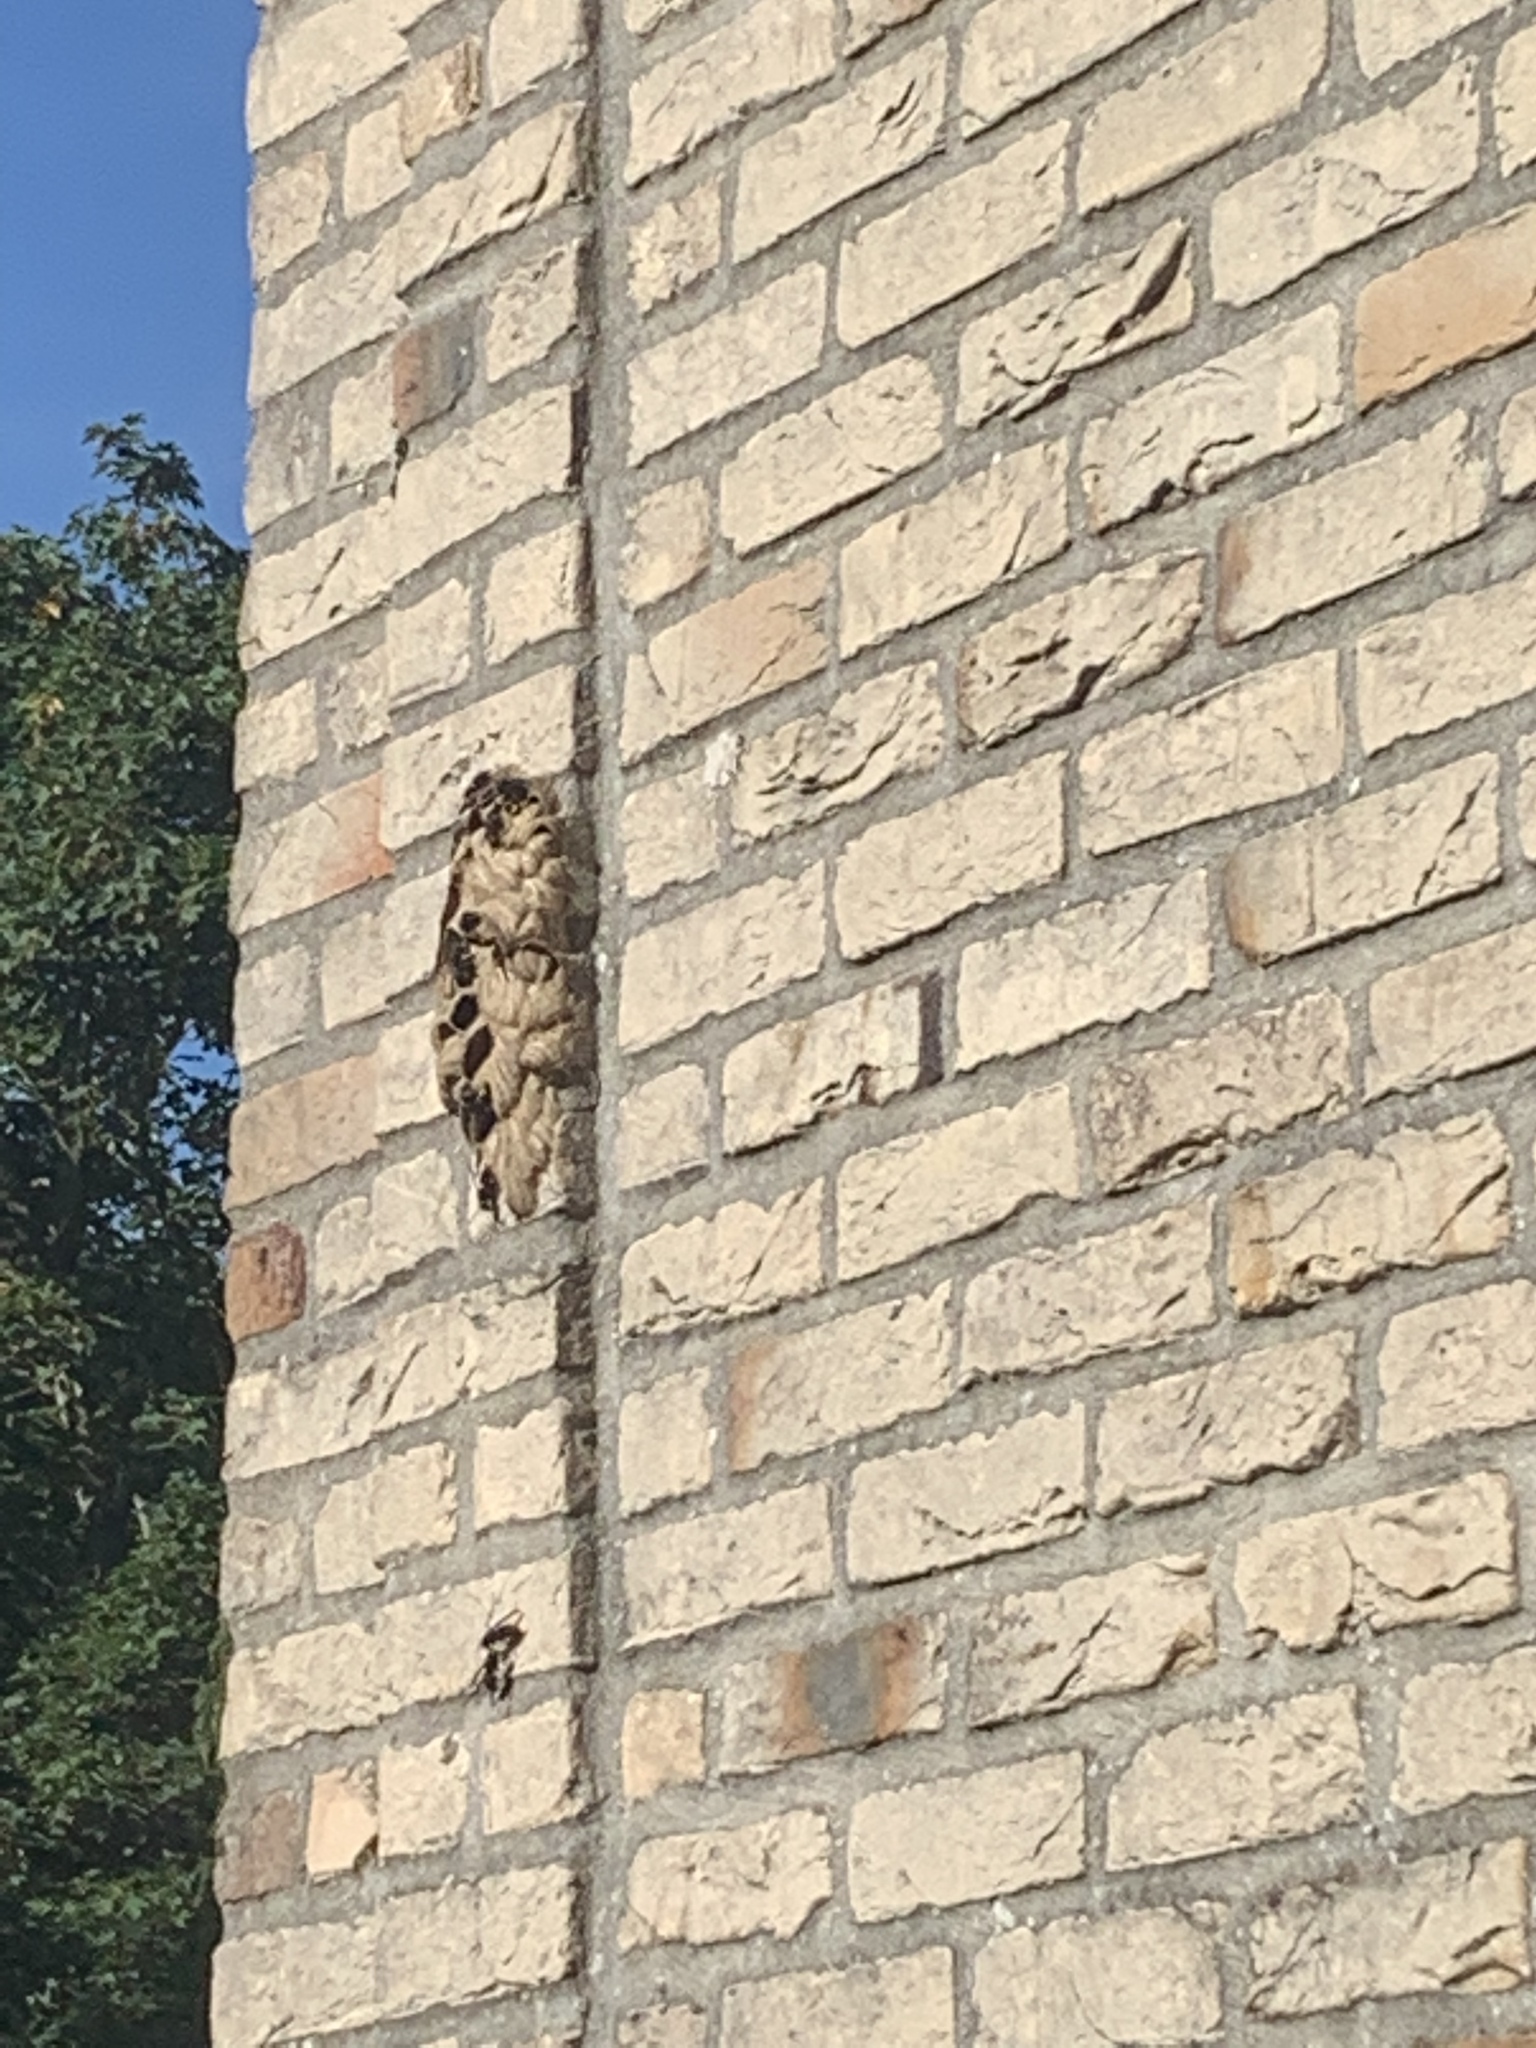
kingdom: Animalia
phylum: Arthropoda
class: Insecta
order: Hymenoptera
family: Vespidae
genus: Vespa
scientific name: Vespa velutina
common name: Asian hornet
